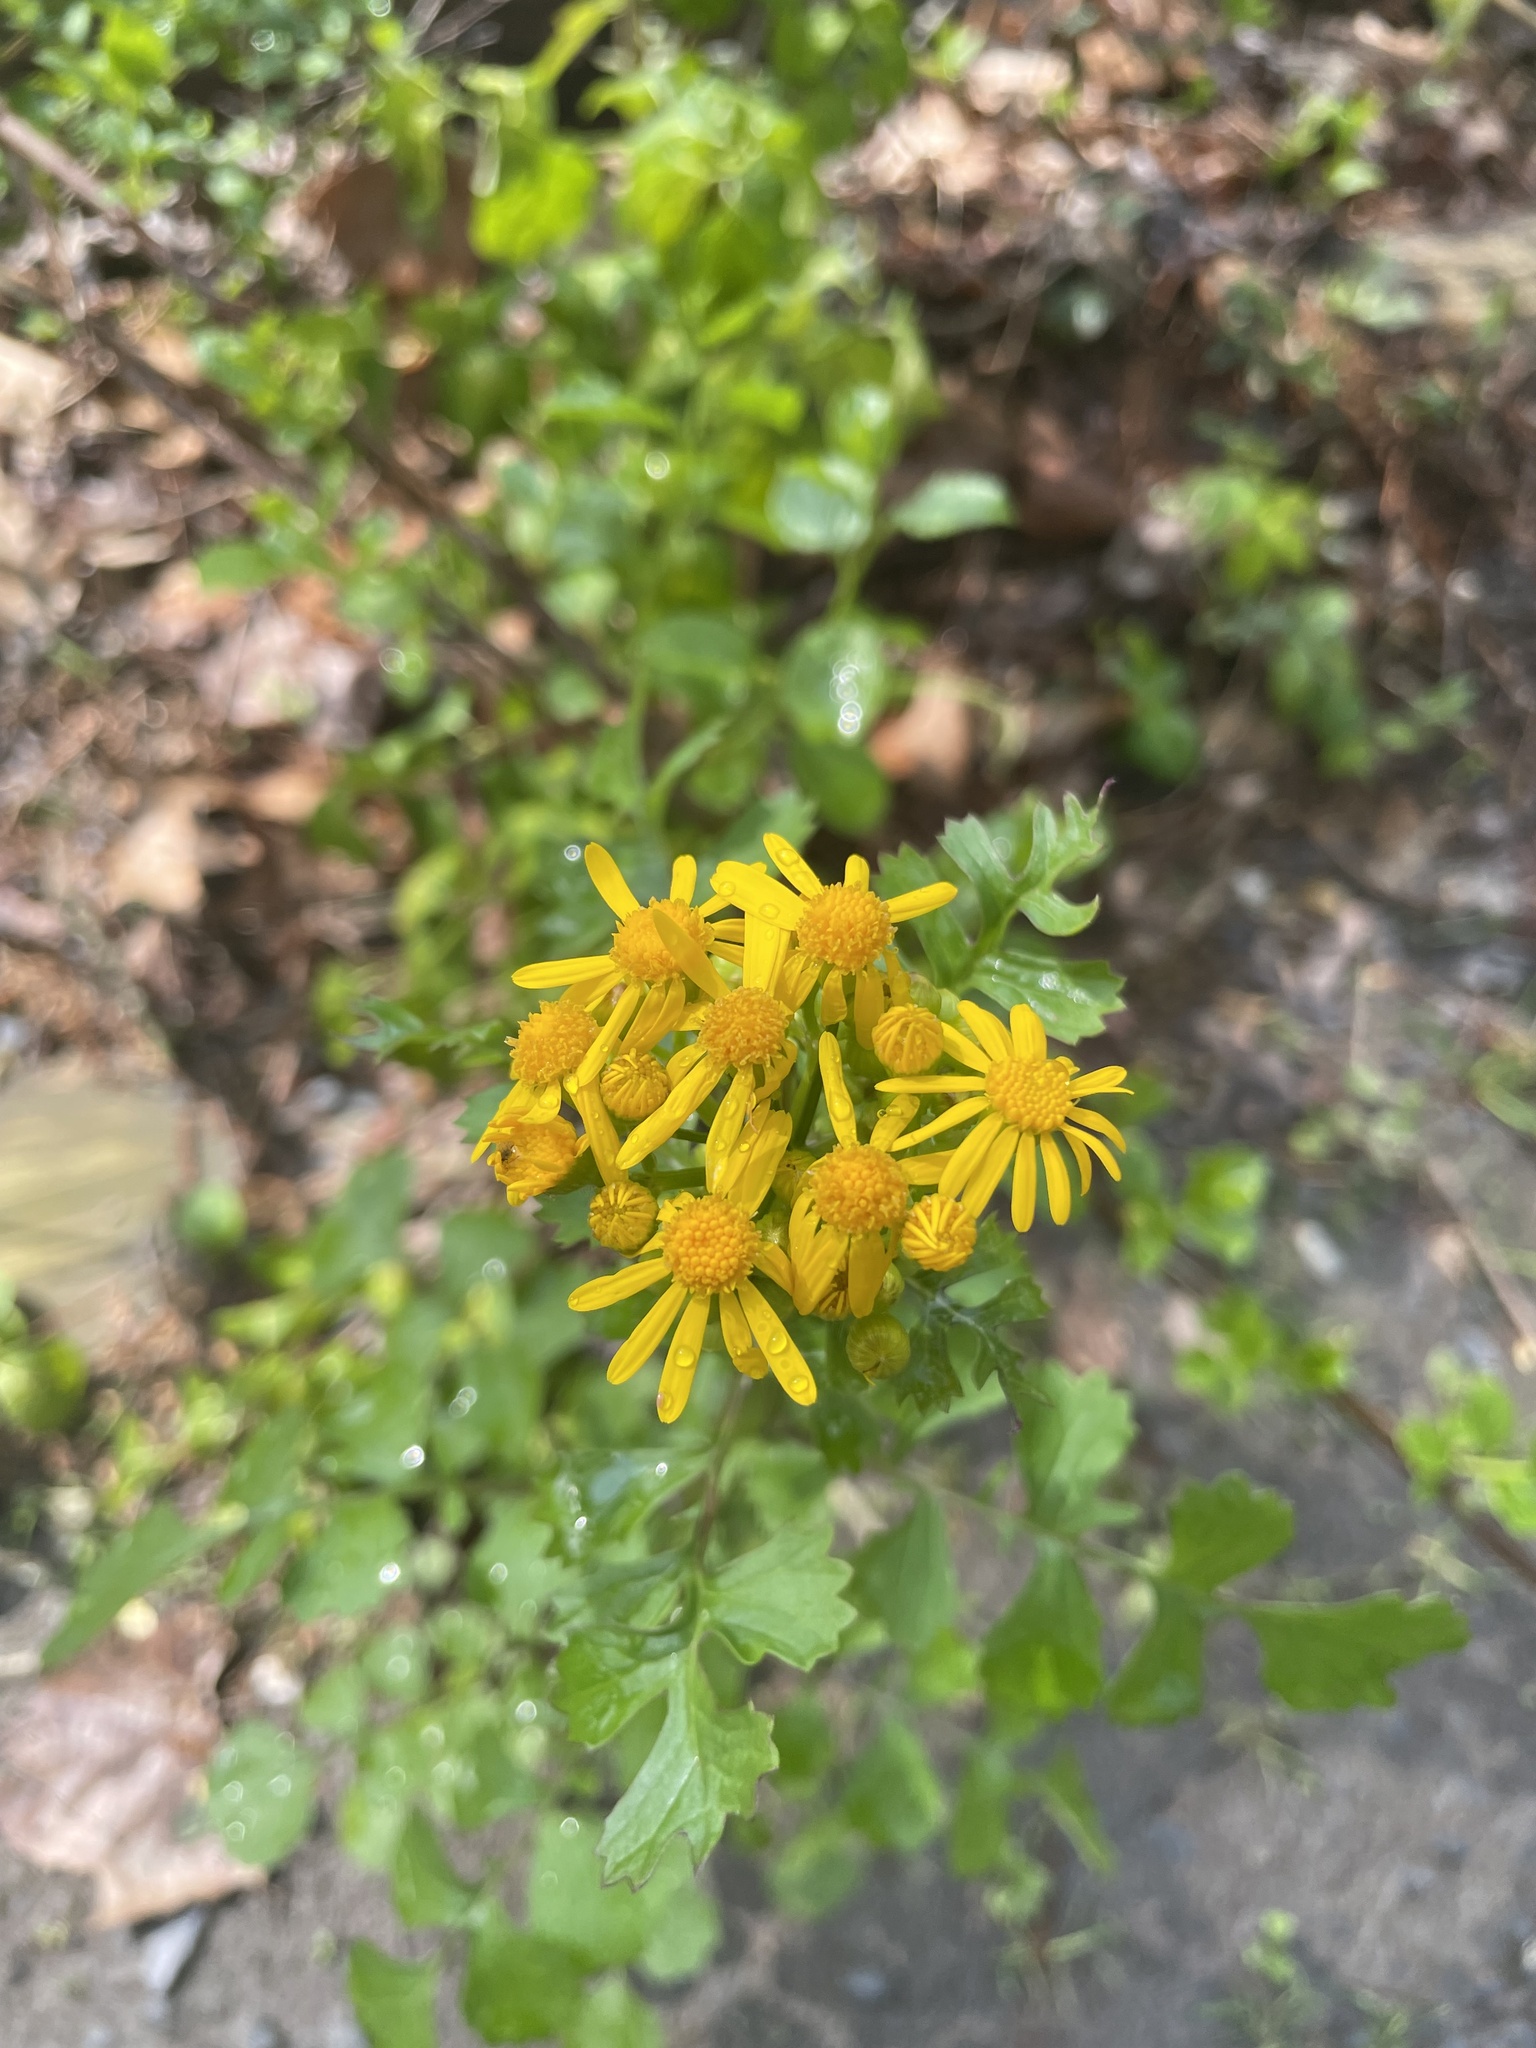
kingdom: Plantae
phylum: Tracheophyta
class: Magnoliopsida
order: Asterales
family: Asteraceae
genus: Packera
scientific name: Packera glabella
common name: Butterweed
